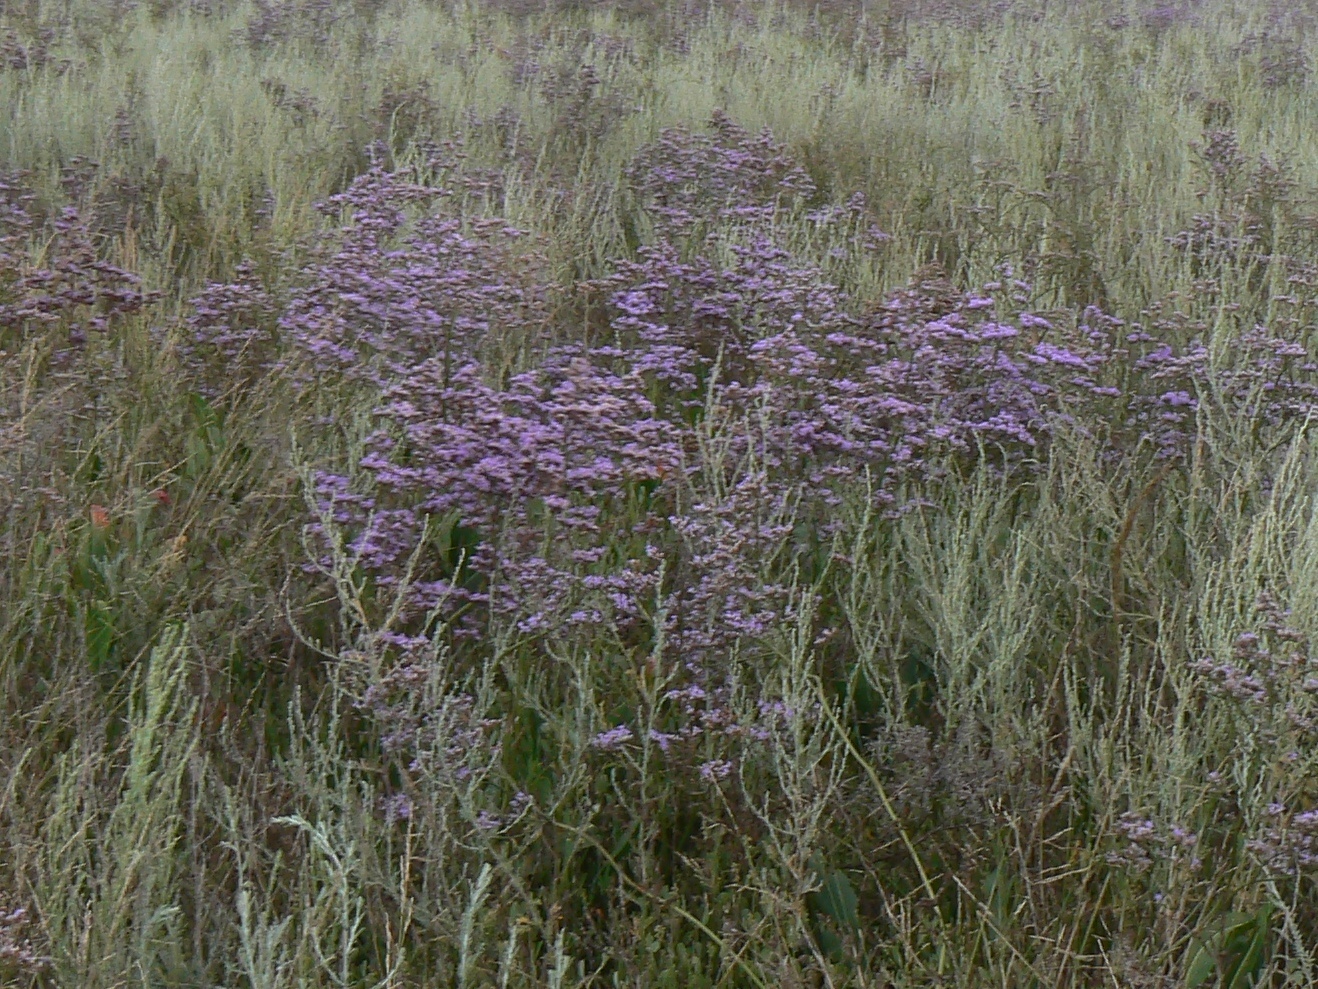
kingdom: Plantae
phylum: Tracheophyta
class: Magnoliopsida
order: Caryophyllales
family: Plumbaginaceae
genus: Limonium
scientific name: Limonium gmelini
